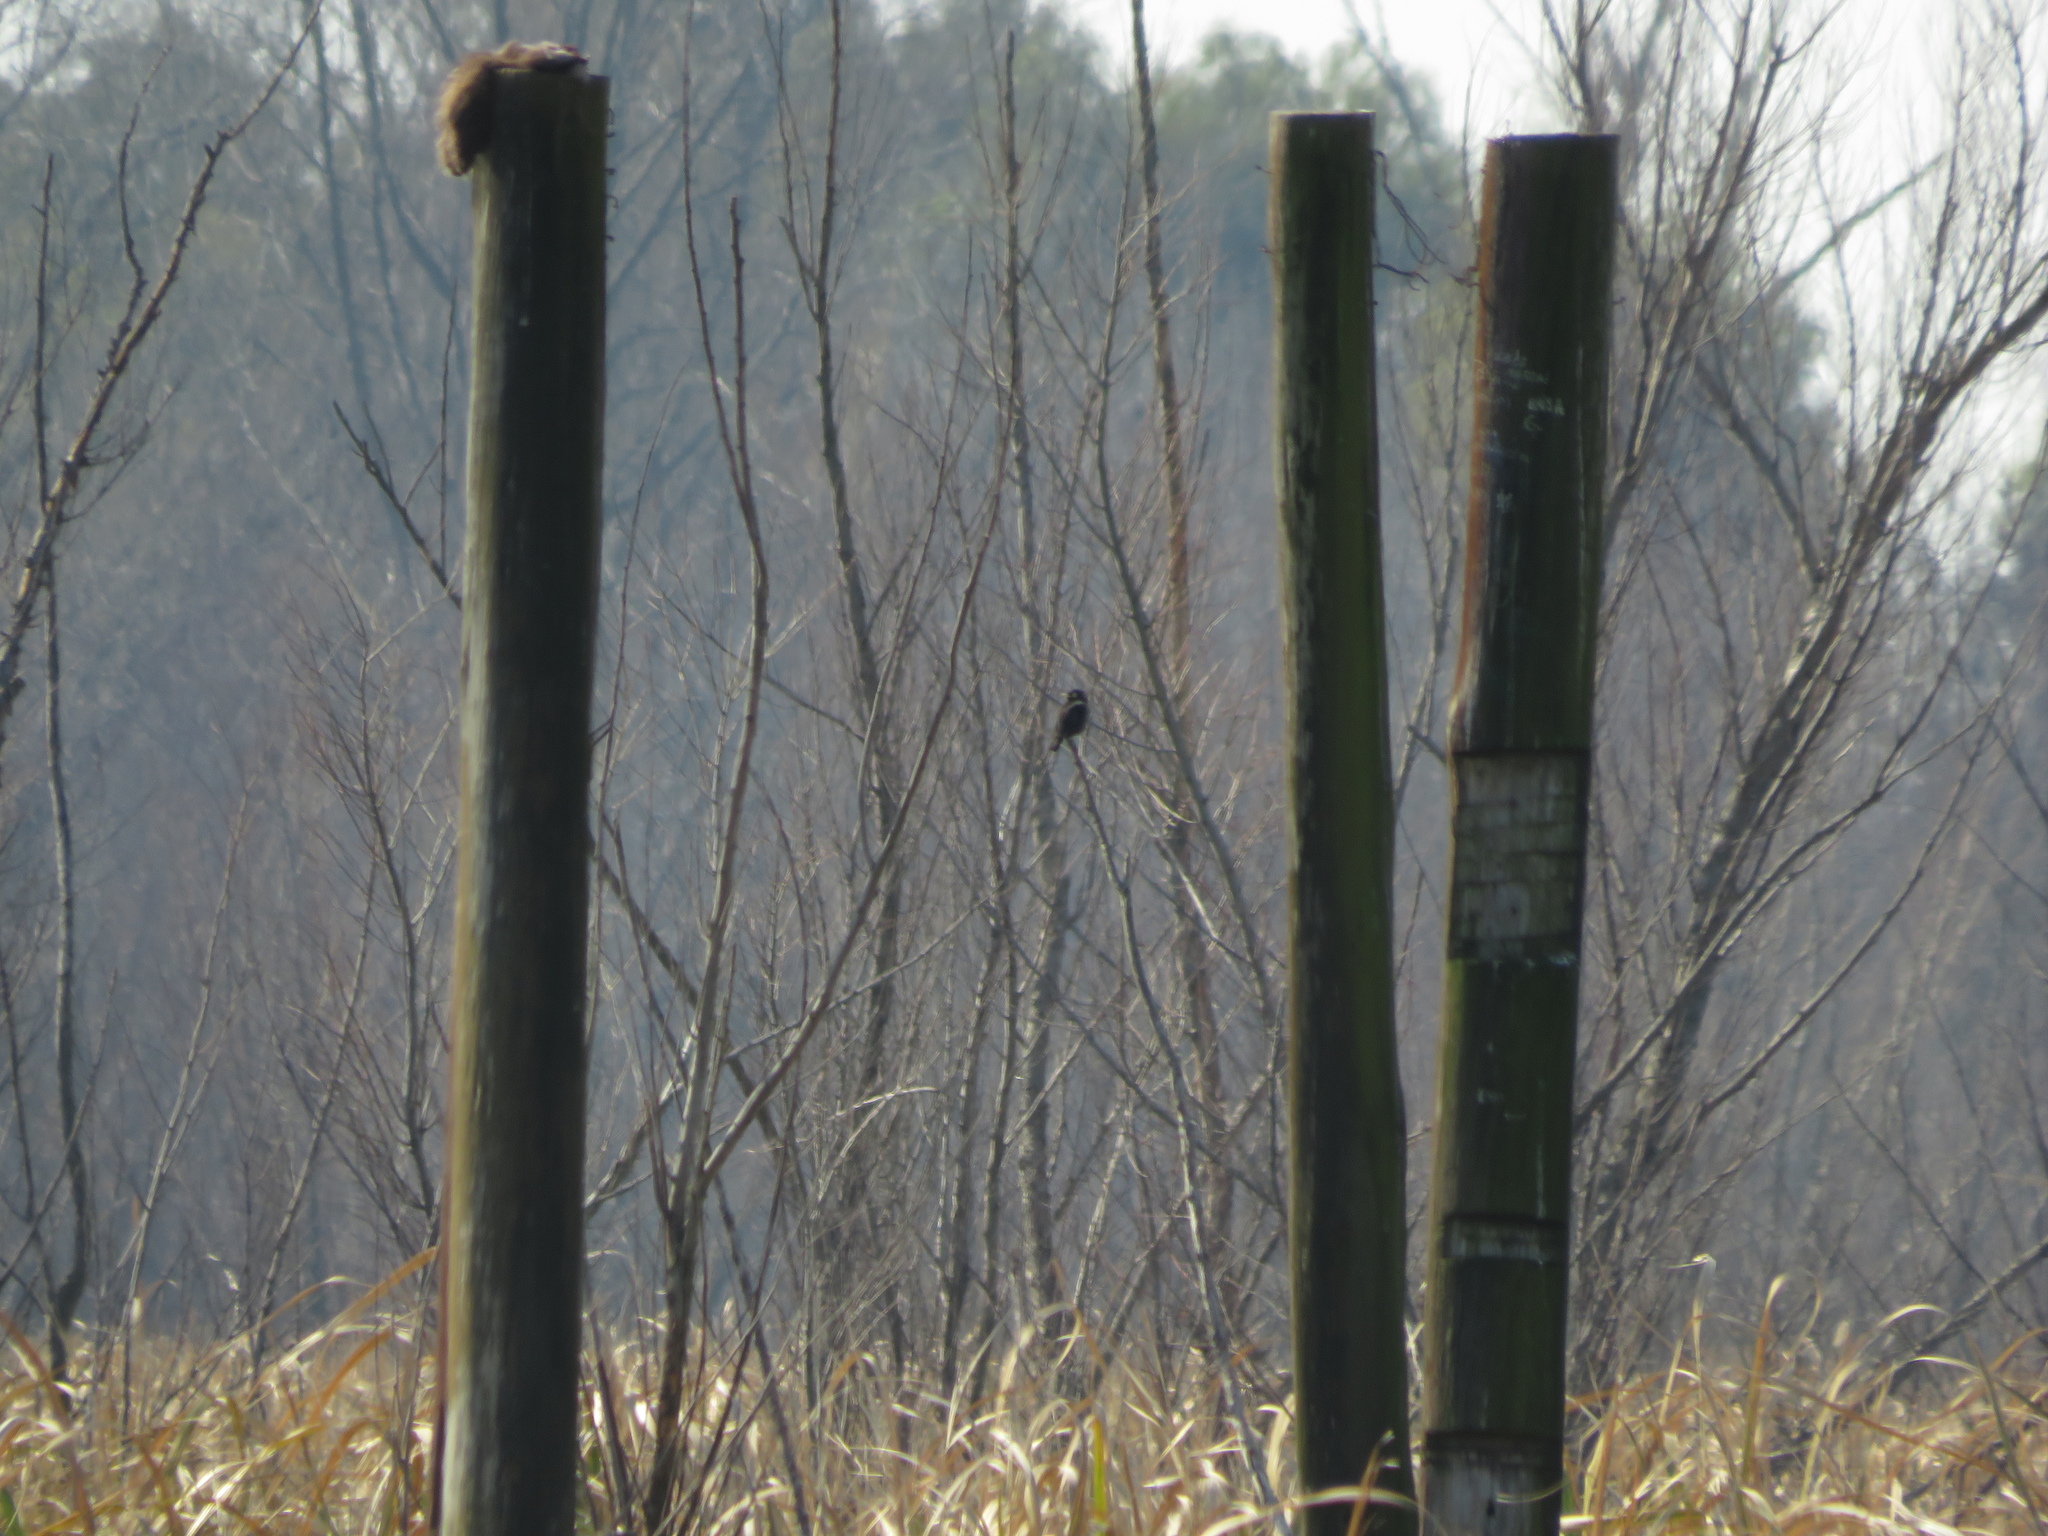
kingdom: Animalia
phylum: Chordata
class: Aves
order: Passeriformes
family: Tyrannidae
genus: Hymenops
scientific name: Hymenops perspicillatus
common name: Spectacled tyrant
